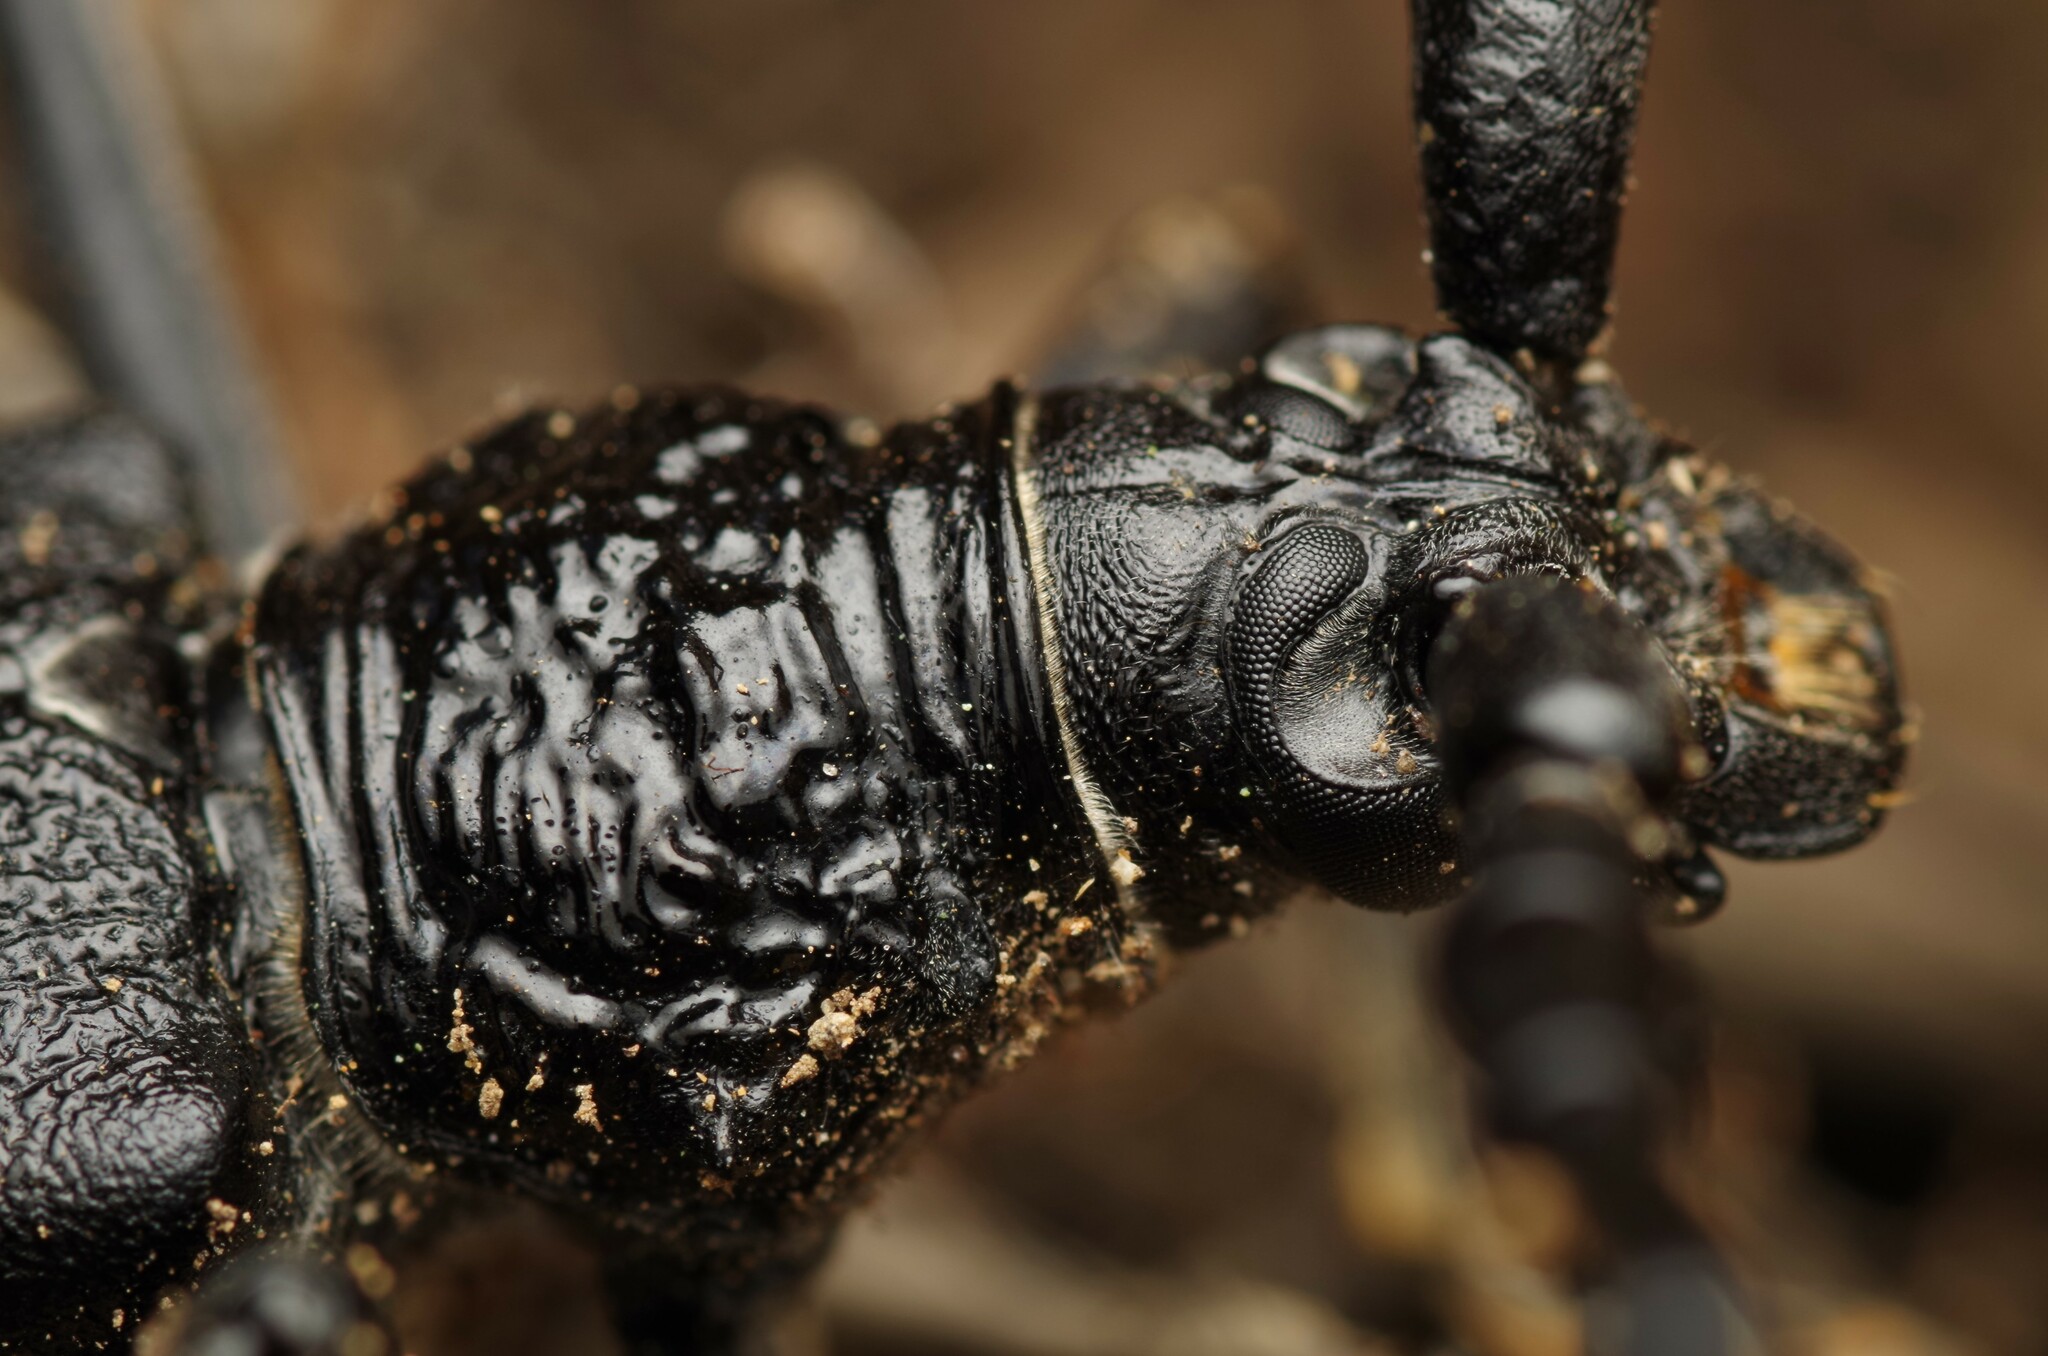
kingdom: Animalia
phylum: Arthropoda
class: Insecta
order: Coleoptera
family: Cerambycidae
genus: Cerambyx
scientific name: Cerambyx cerdo
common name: Cerambyx longicorn
